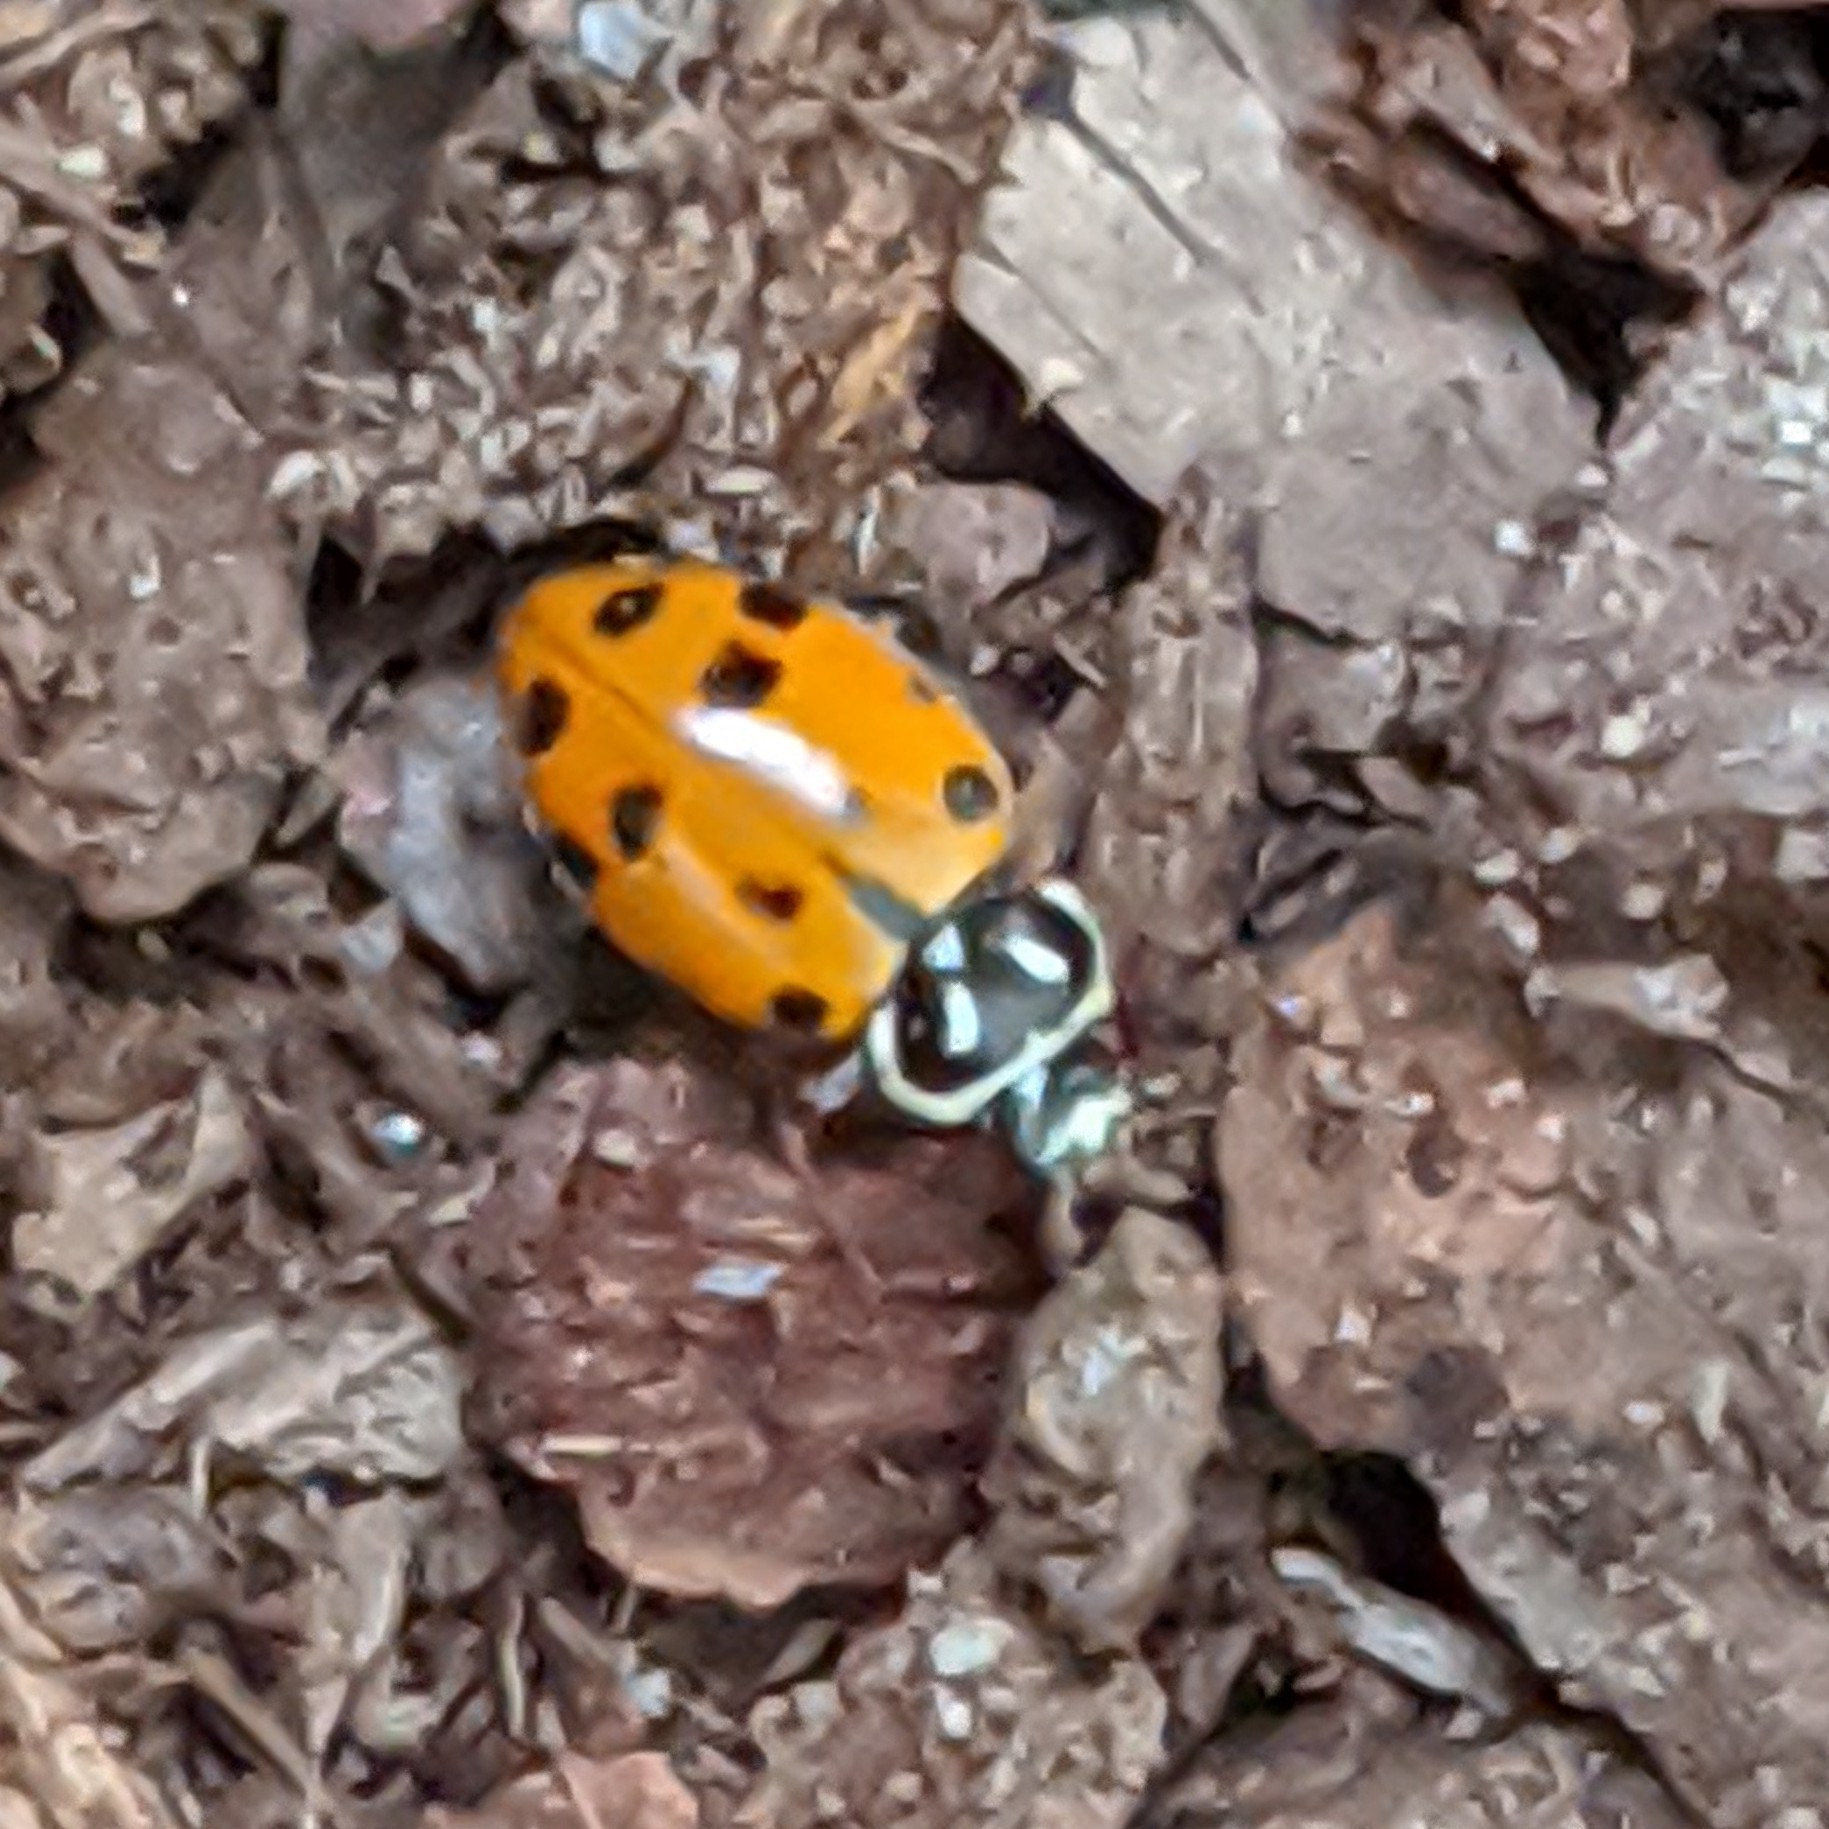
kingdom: Animalia
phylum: Arthropoda
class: Insecta
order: Coleoptera
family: Coccinellidae
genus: Hippodamia
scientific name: Hippodamia convergens
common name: Convergent lady beetle
